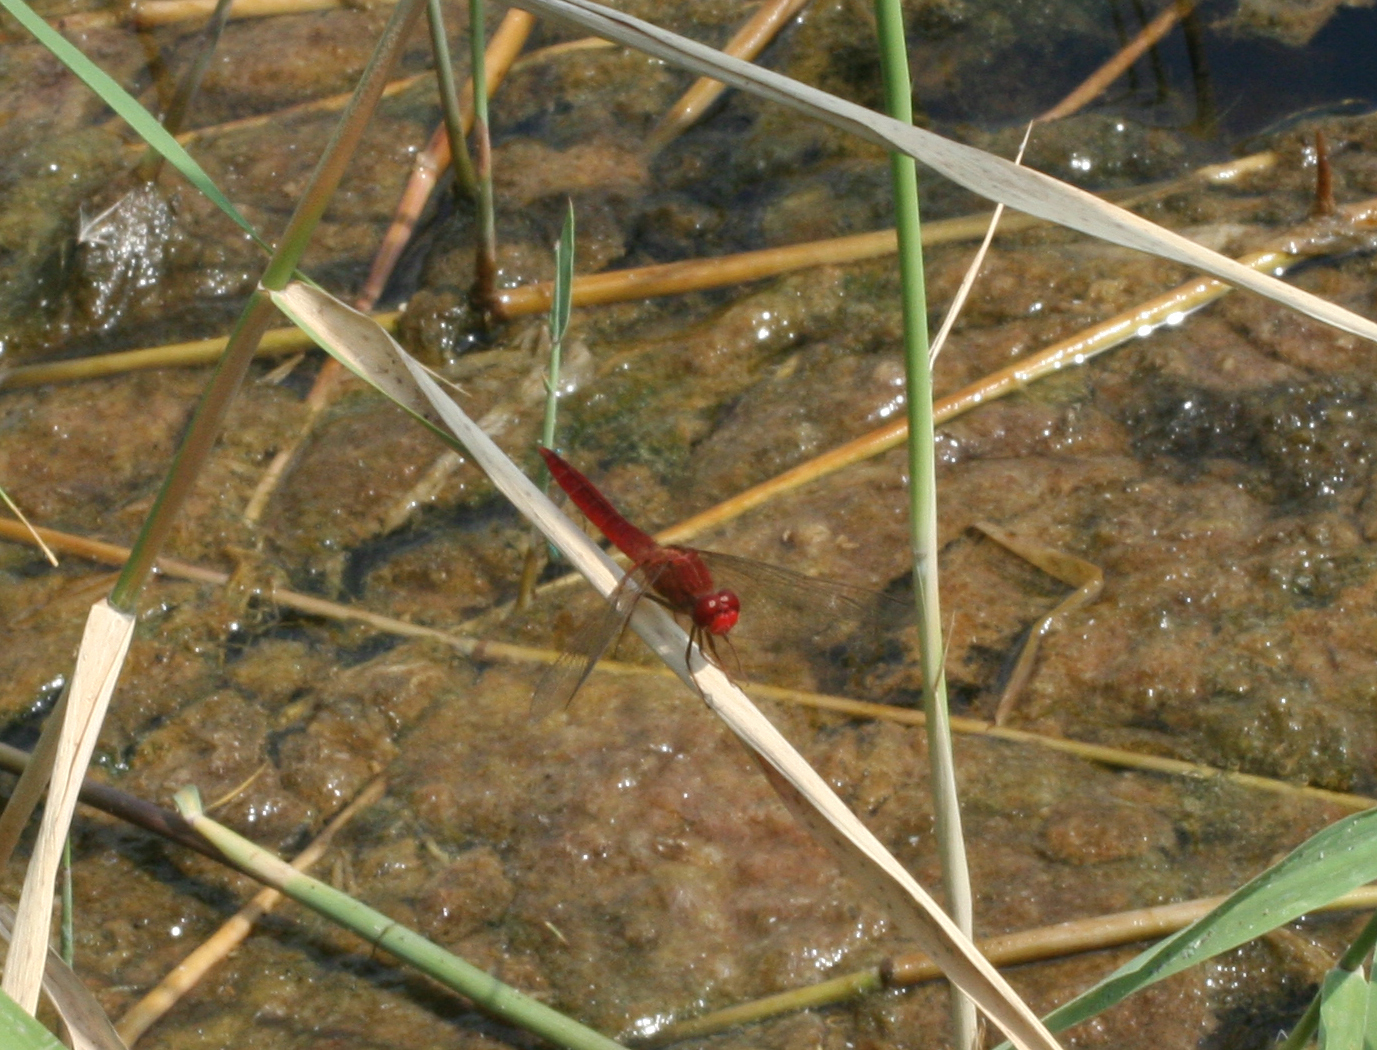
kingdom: Animalia
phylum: Arthropoda
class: Insecta
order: Odonata
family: Libellulidae
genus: Crocothemis
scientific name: Crocothemis erythraea
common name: Scarlet dragonfly
